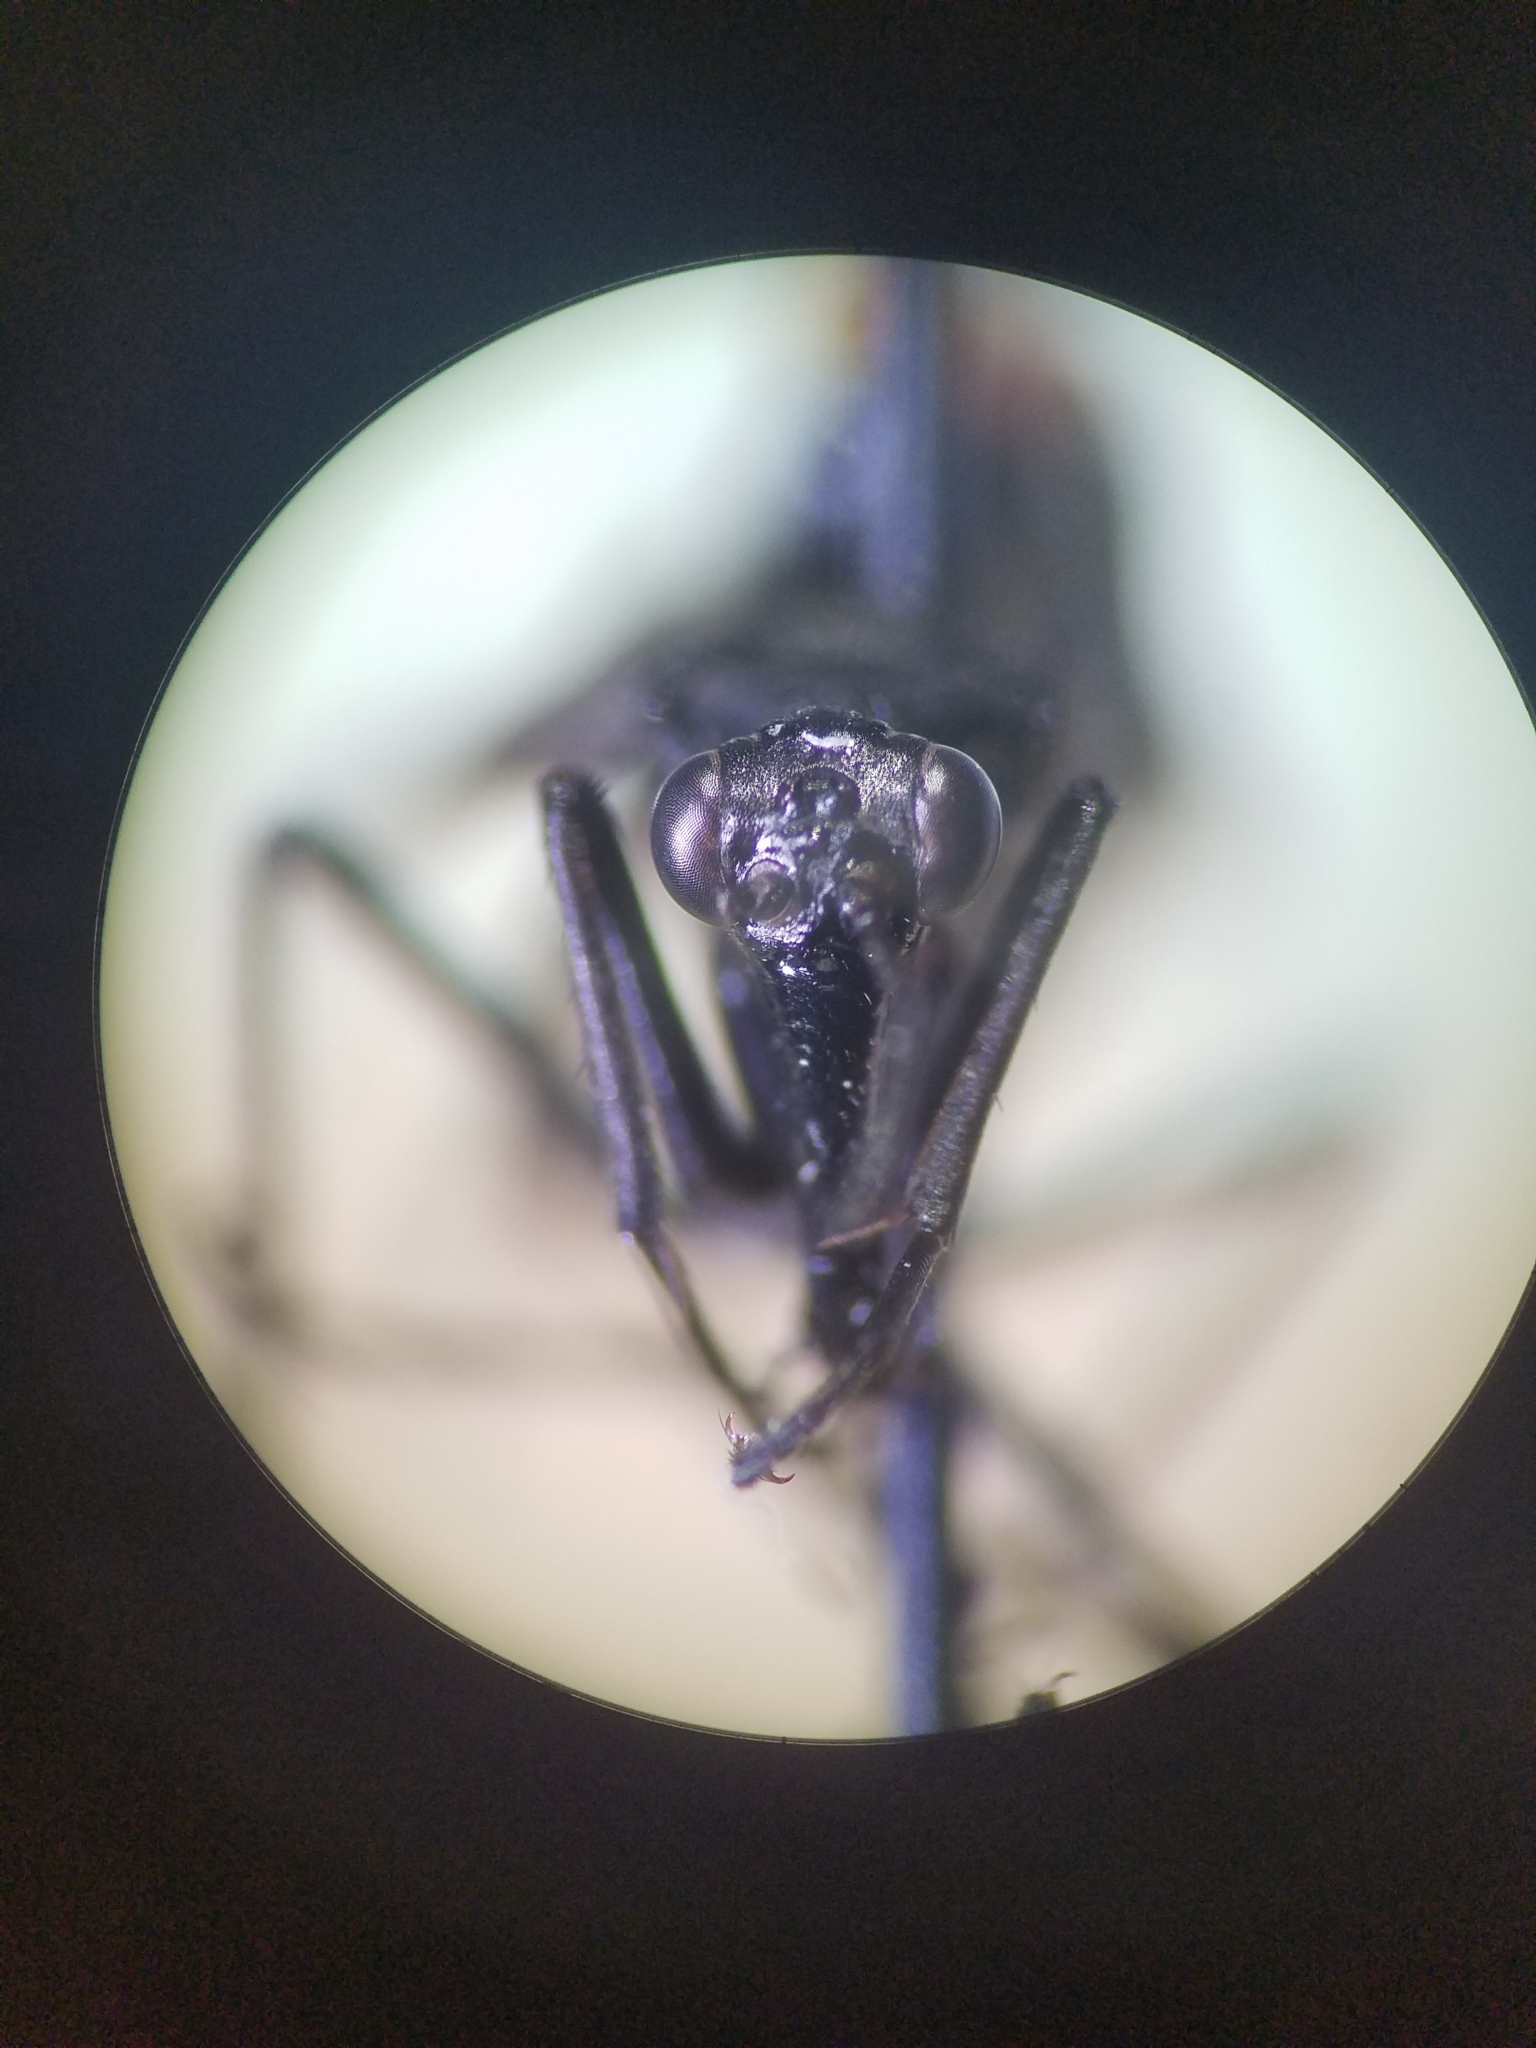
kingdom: Animalia
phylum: Arthropoda
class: Insecta
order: Mecoptera
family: Panorpidae
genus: Panorpa
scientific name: Panorpa lugubris
